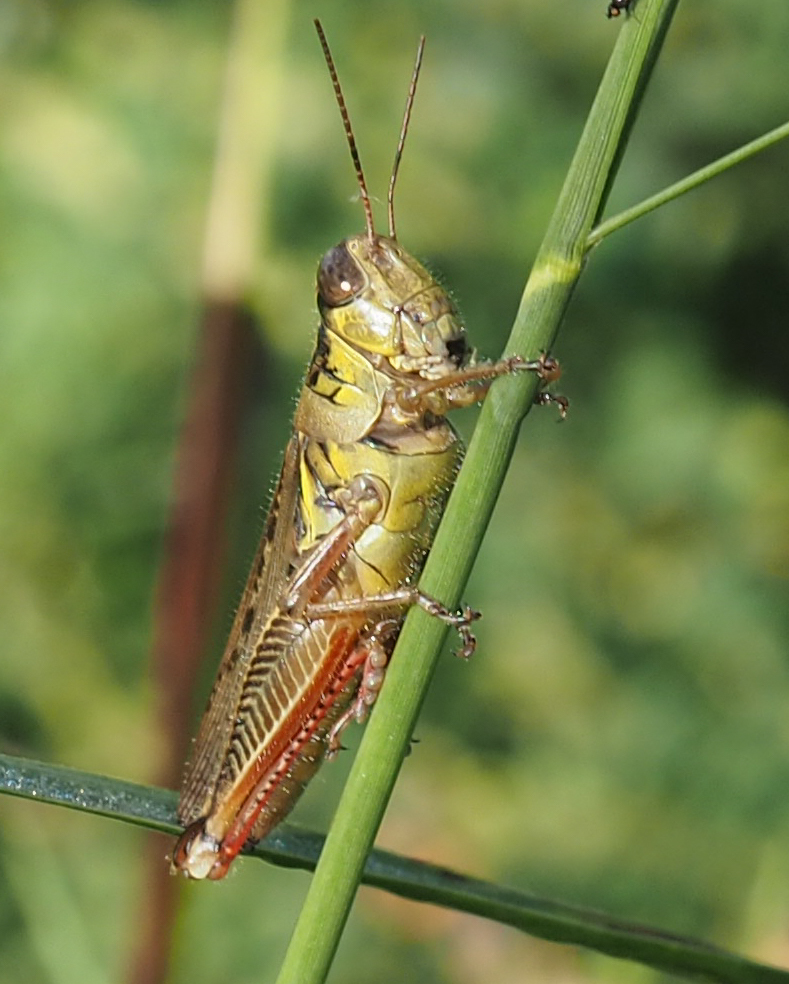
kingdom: Animalia
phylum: Arthropoda
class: Insecta
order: Orthoptera
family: Acrididae
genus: Melanoplus
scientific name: Melanoplus femurrubrum
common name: Red-legged grasshopper
